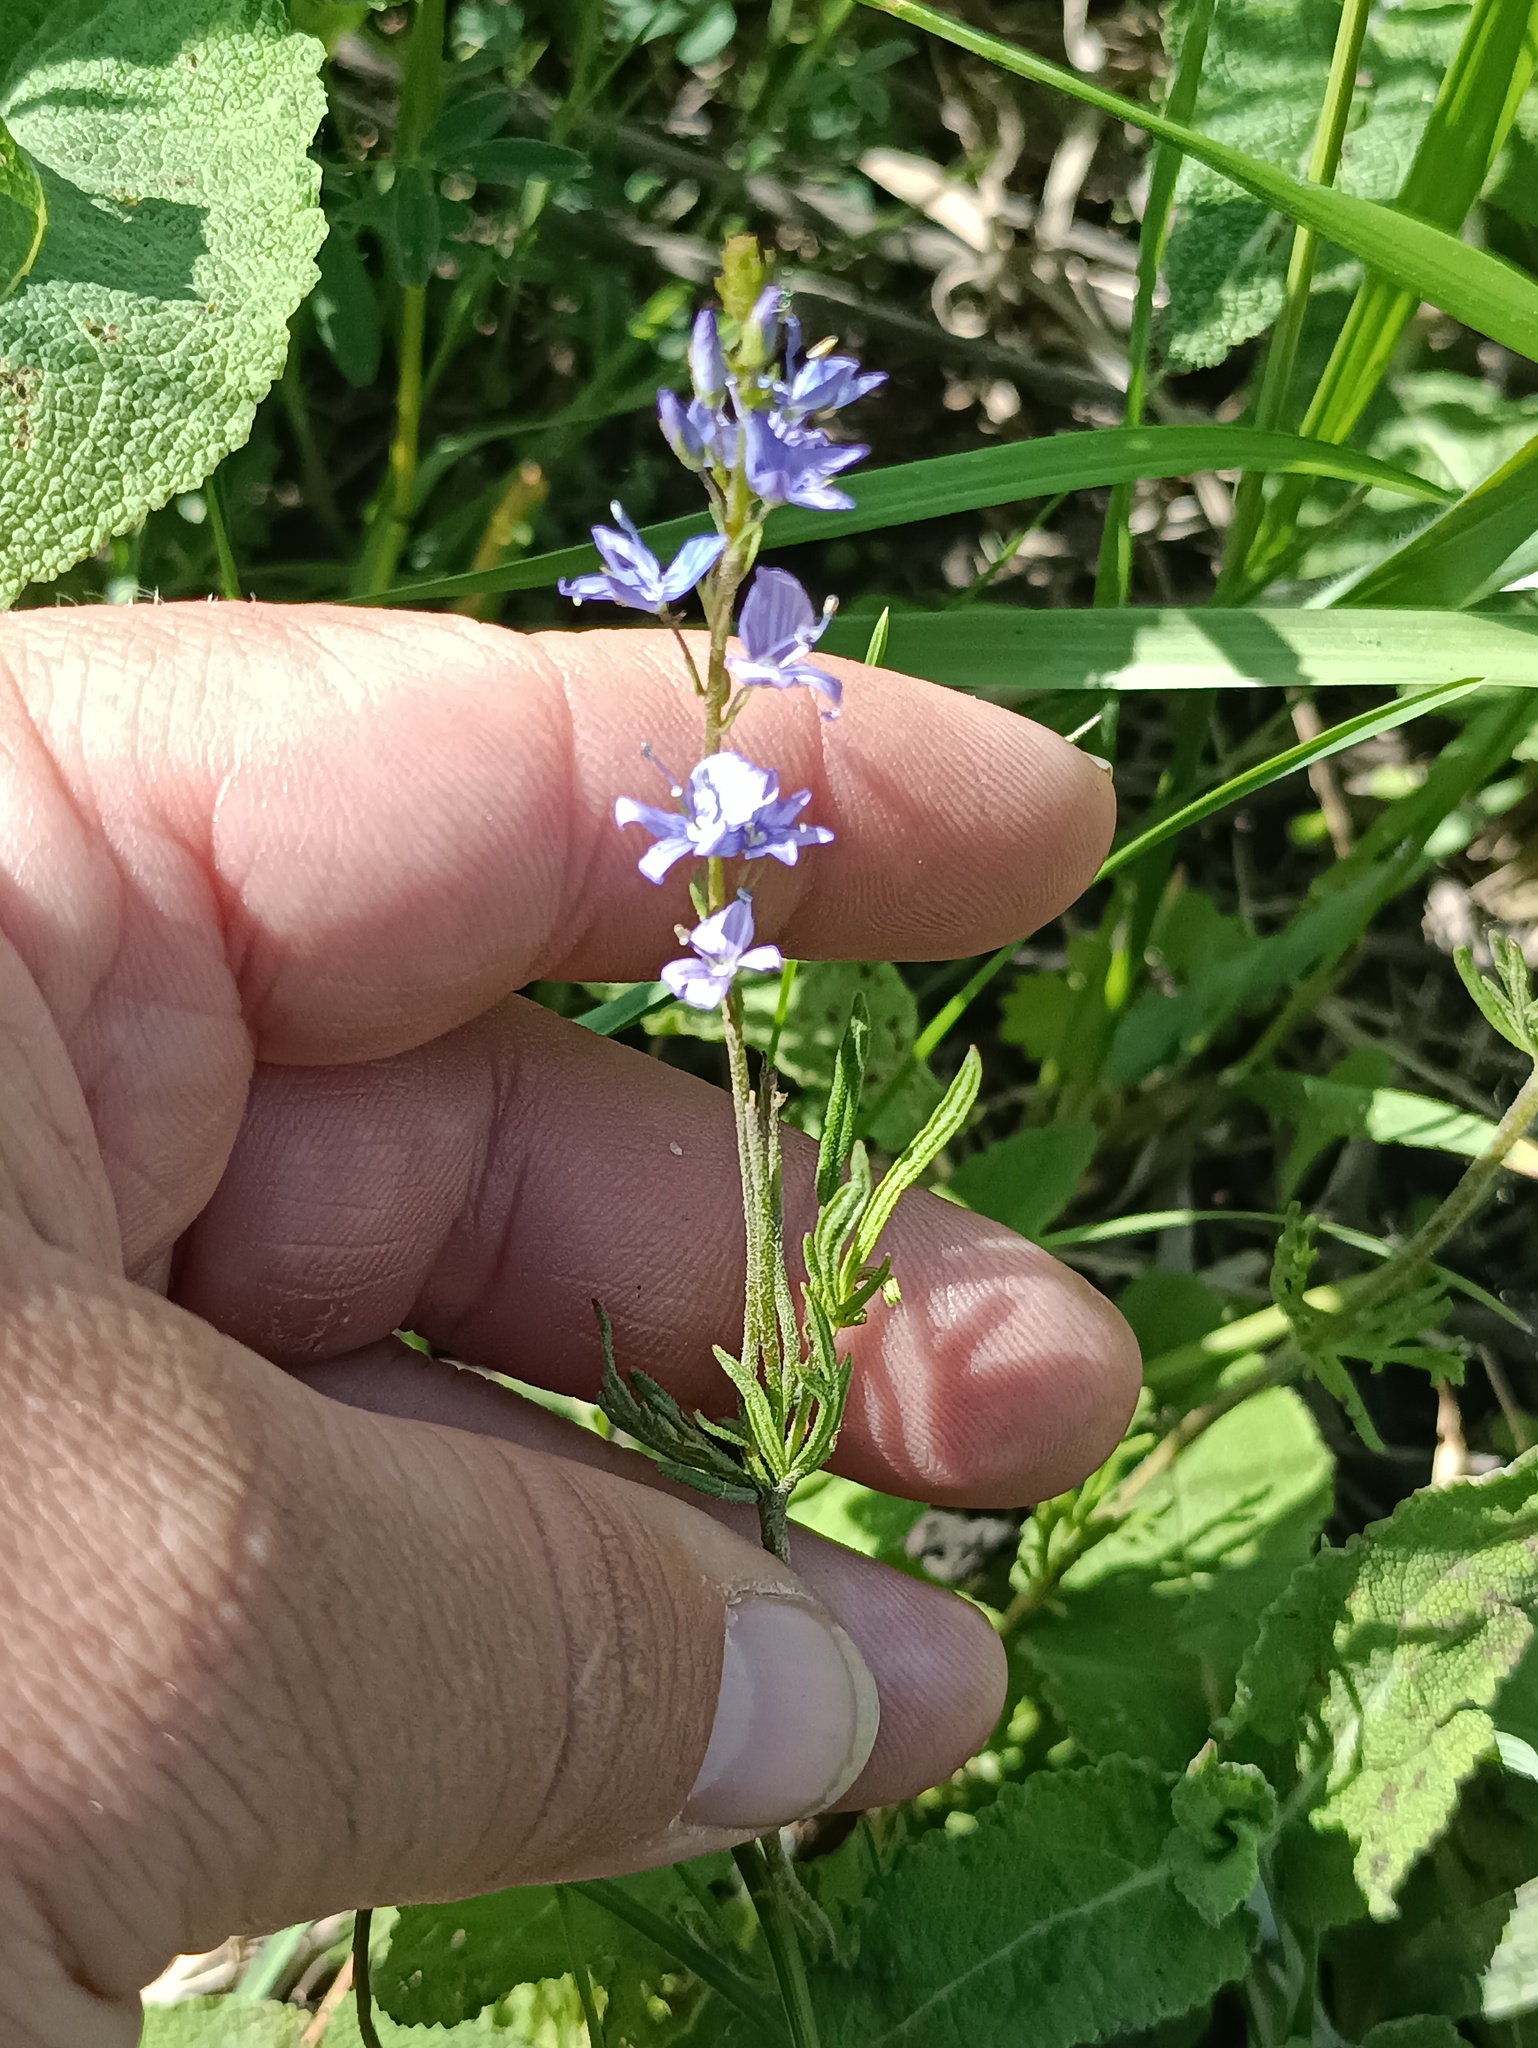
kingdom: Plantae
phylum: Tracheophyta
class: Magnoliopsida
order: Lamiales
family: Plantaginaceae
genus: Veronica
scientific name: Veronica austriaca
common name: Large speedwell
